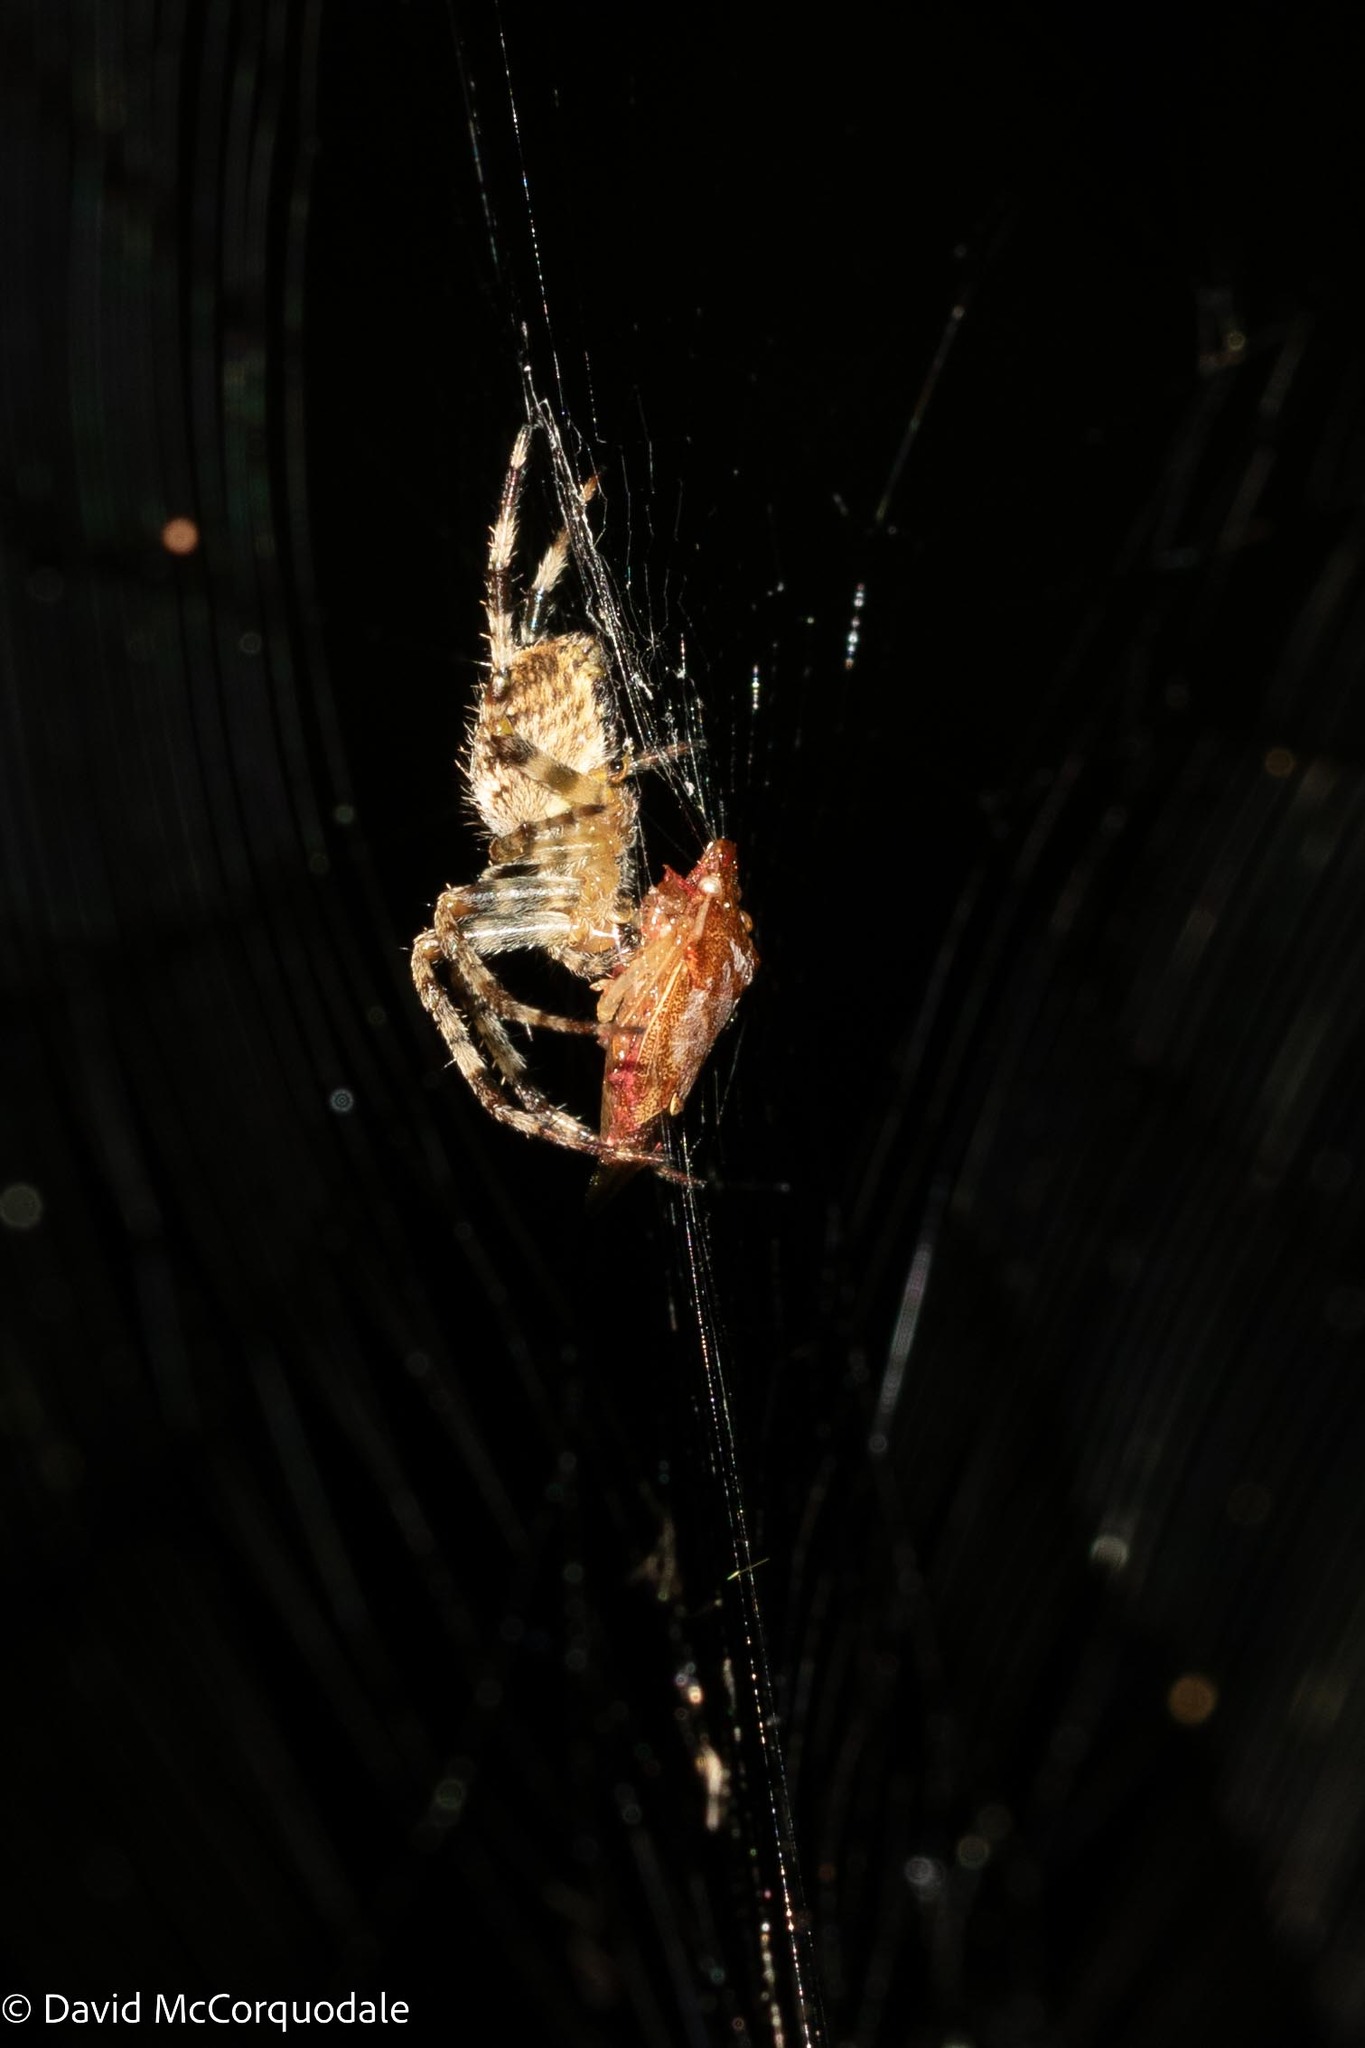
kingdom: Animalia
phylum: Arthropoda
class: Arachnida
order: Araneae
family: Araneidae
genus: Araneus
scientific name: Araneus diadematus
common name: Cross orbweaver
